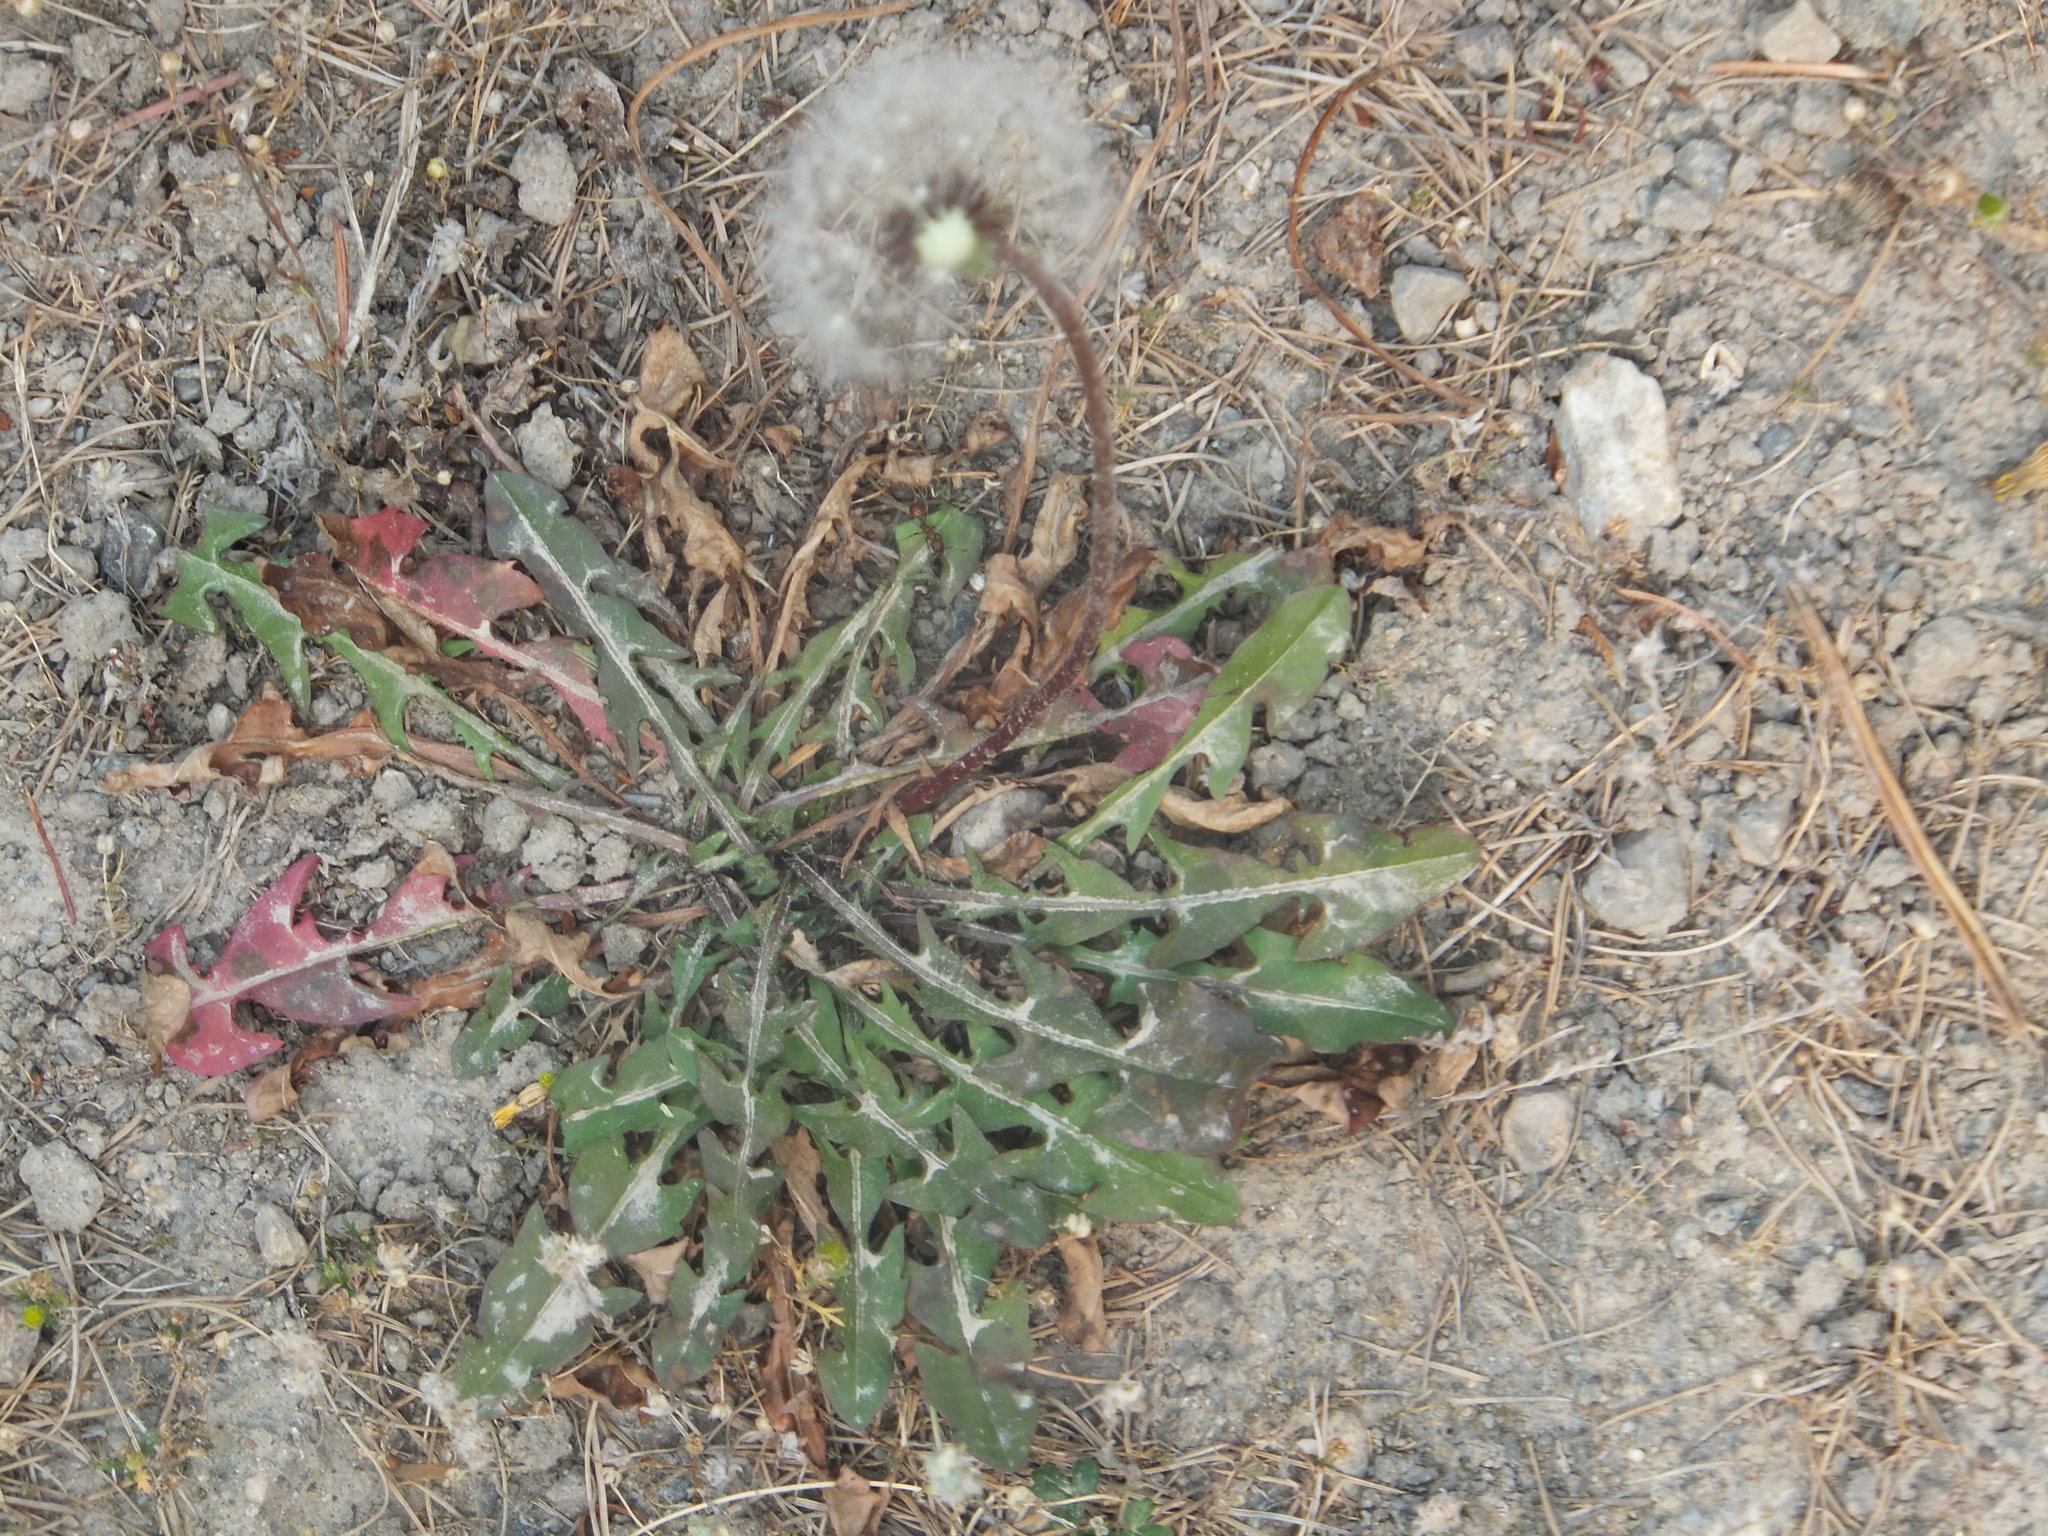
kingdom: Plantae
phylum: Tracheophyta
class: Magnoliopsida
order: Asterales
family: Asteraceae
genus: Taraxacum
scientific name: Taraxacum erythrospermum
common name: Rock dandelion
